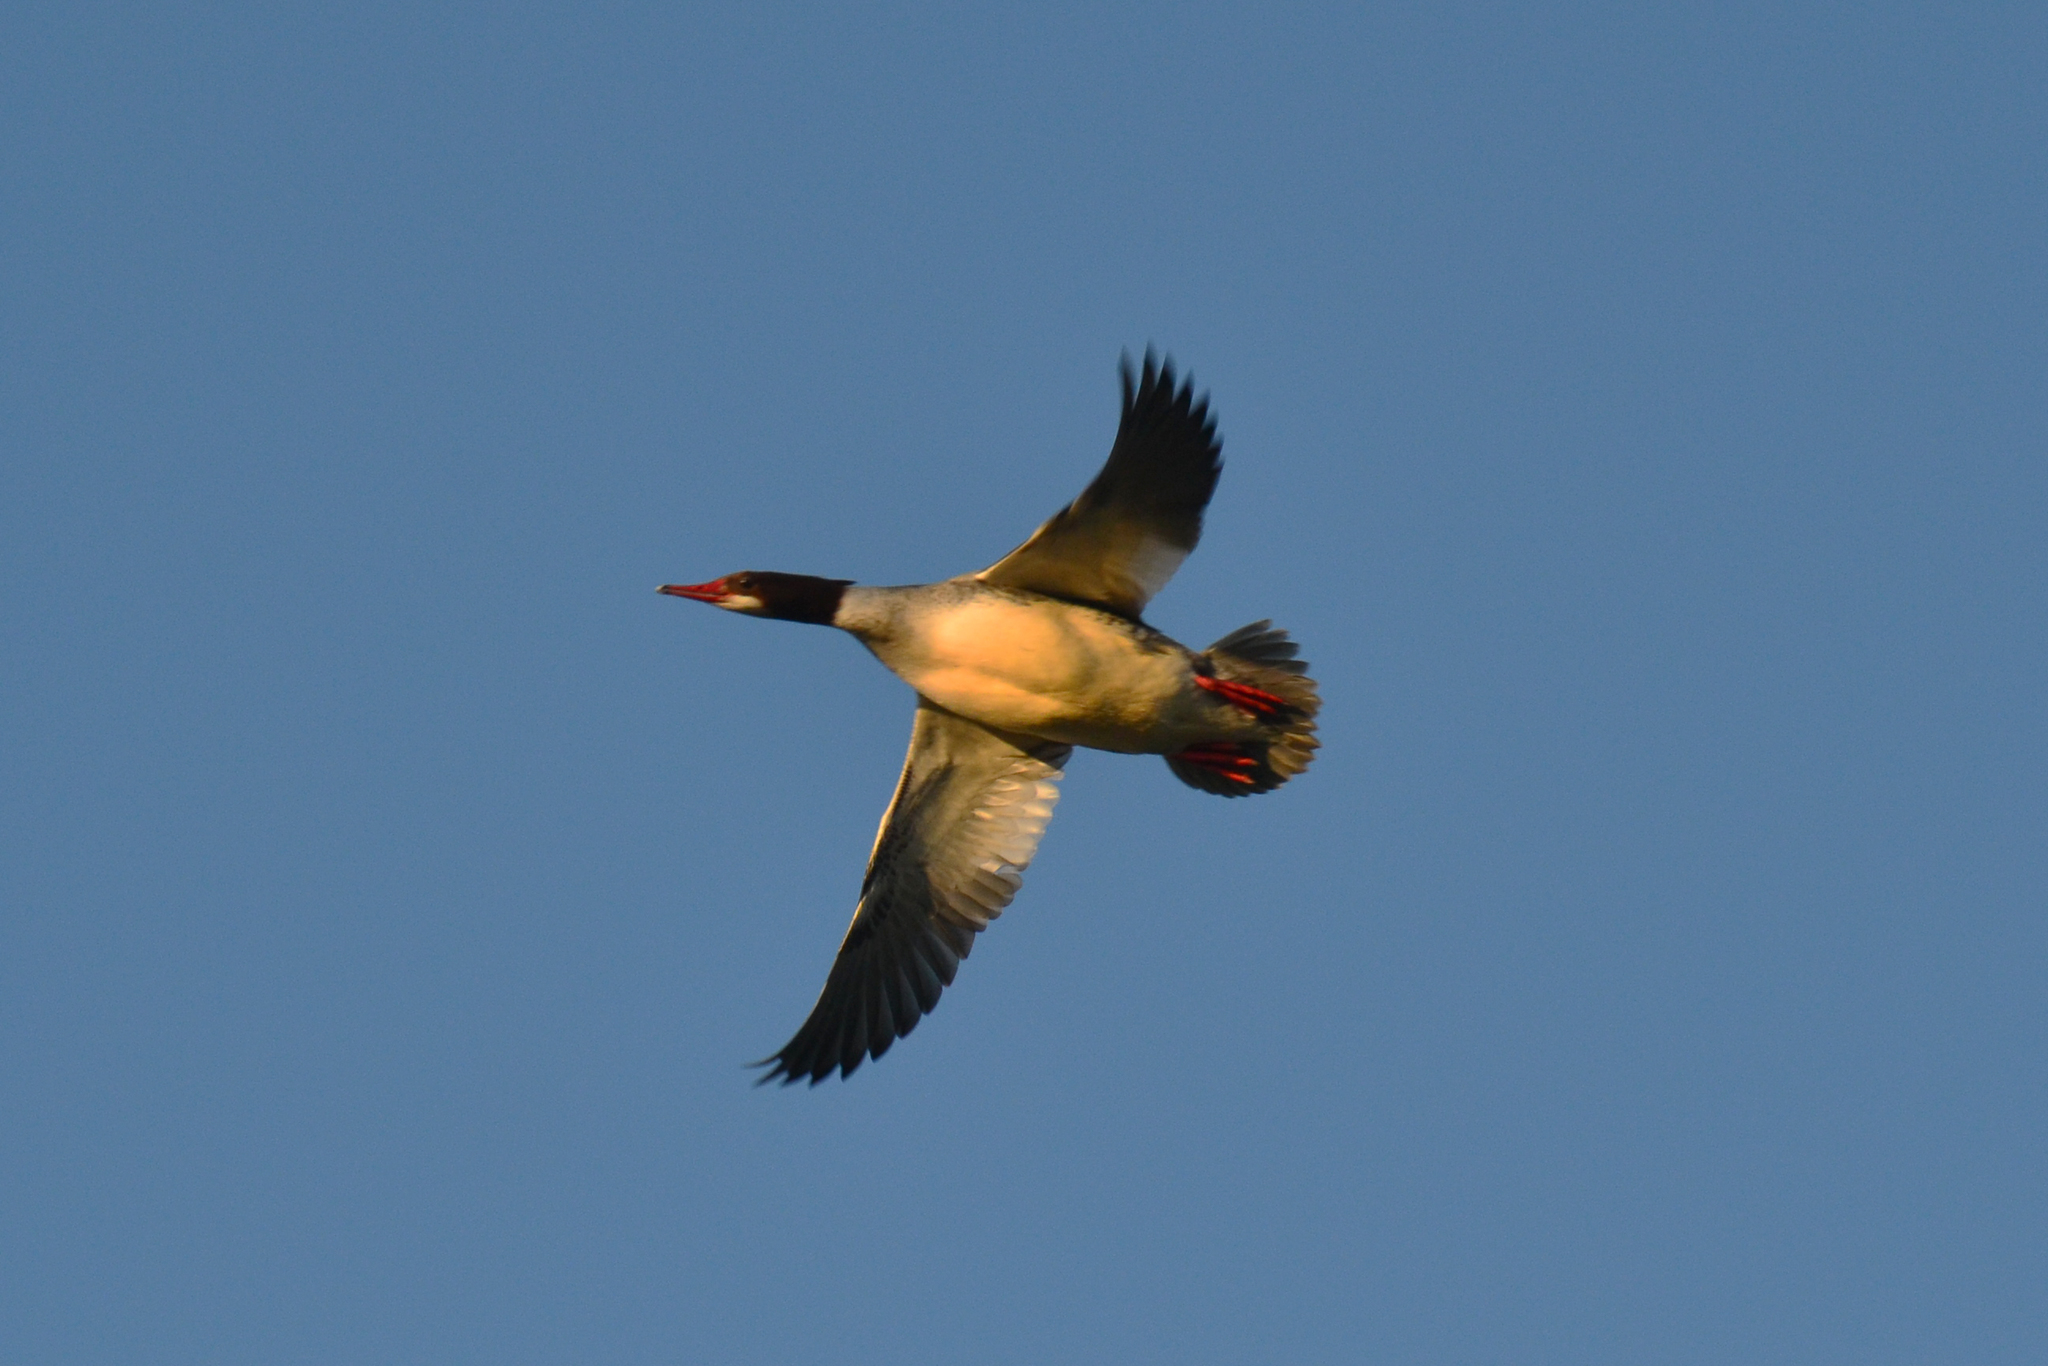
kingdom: Animalia
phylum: Chordata
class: Aves
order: Anseriformes
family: Anatidae
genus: Mergus
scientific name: Mergus merganser
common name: Common merganser
